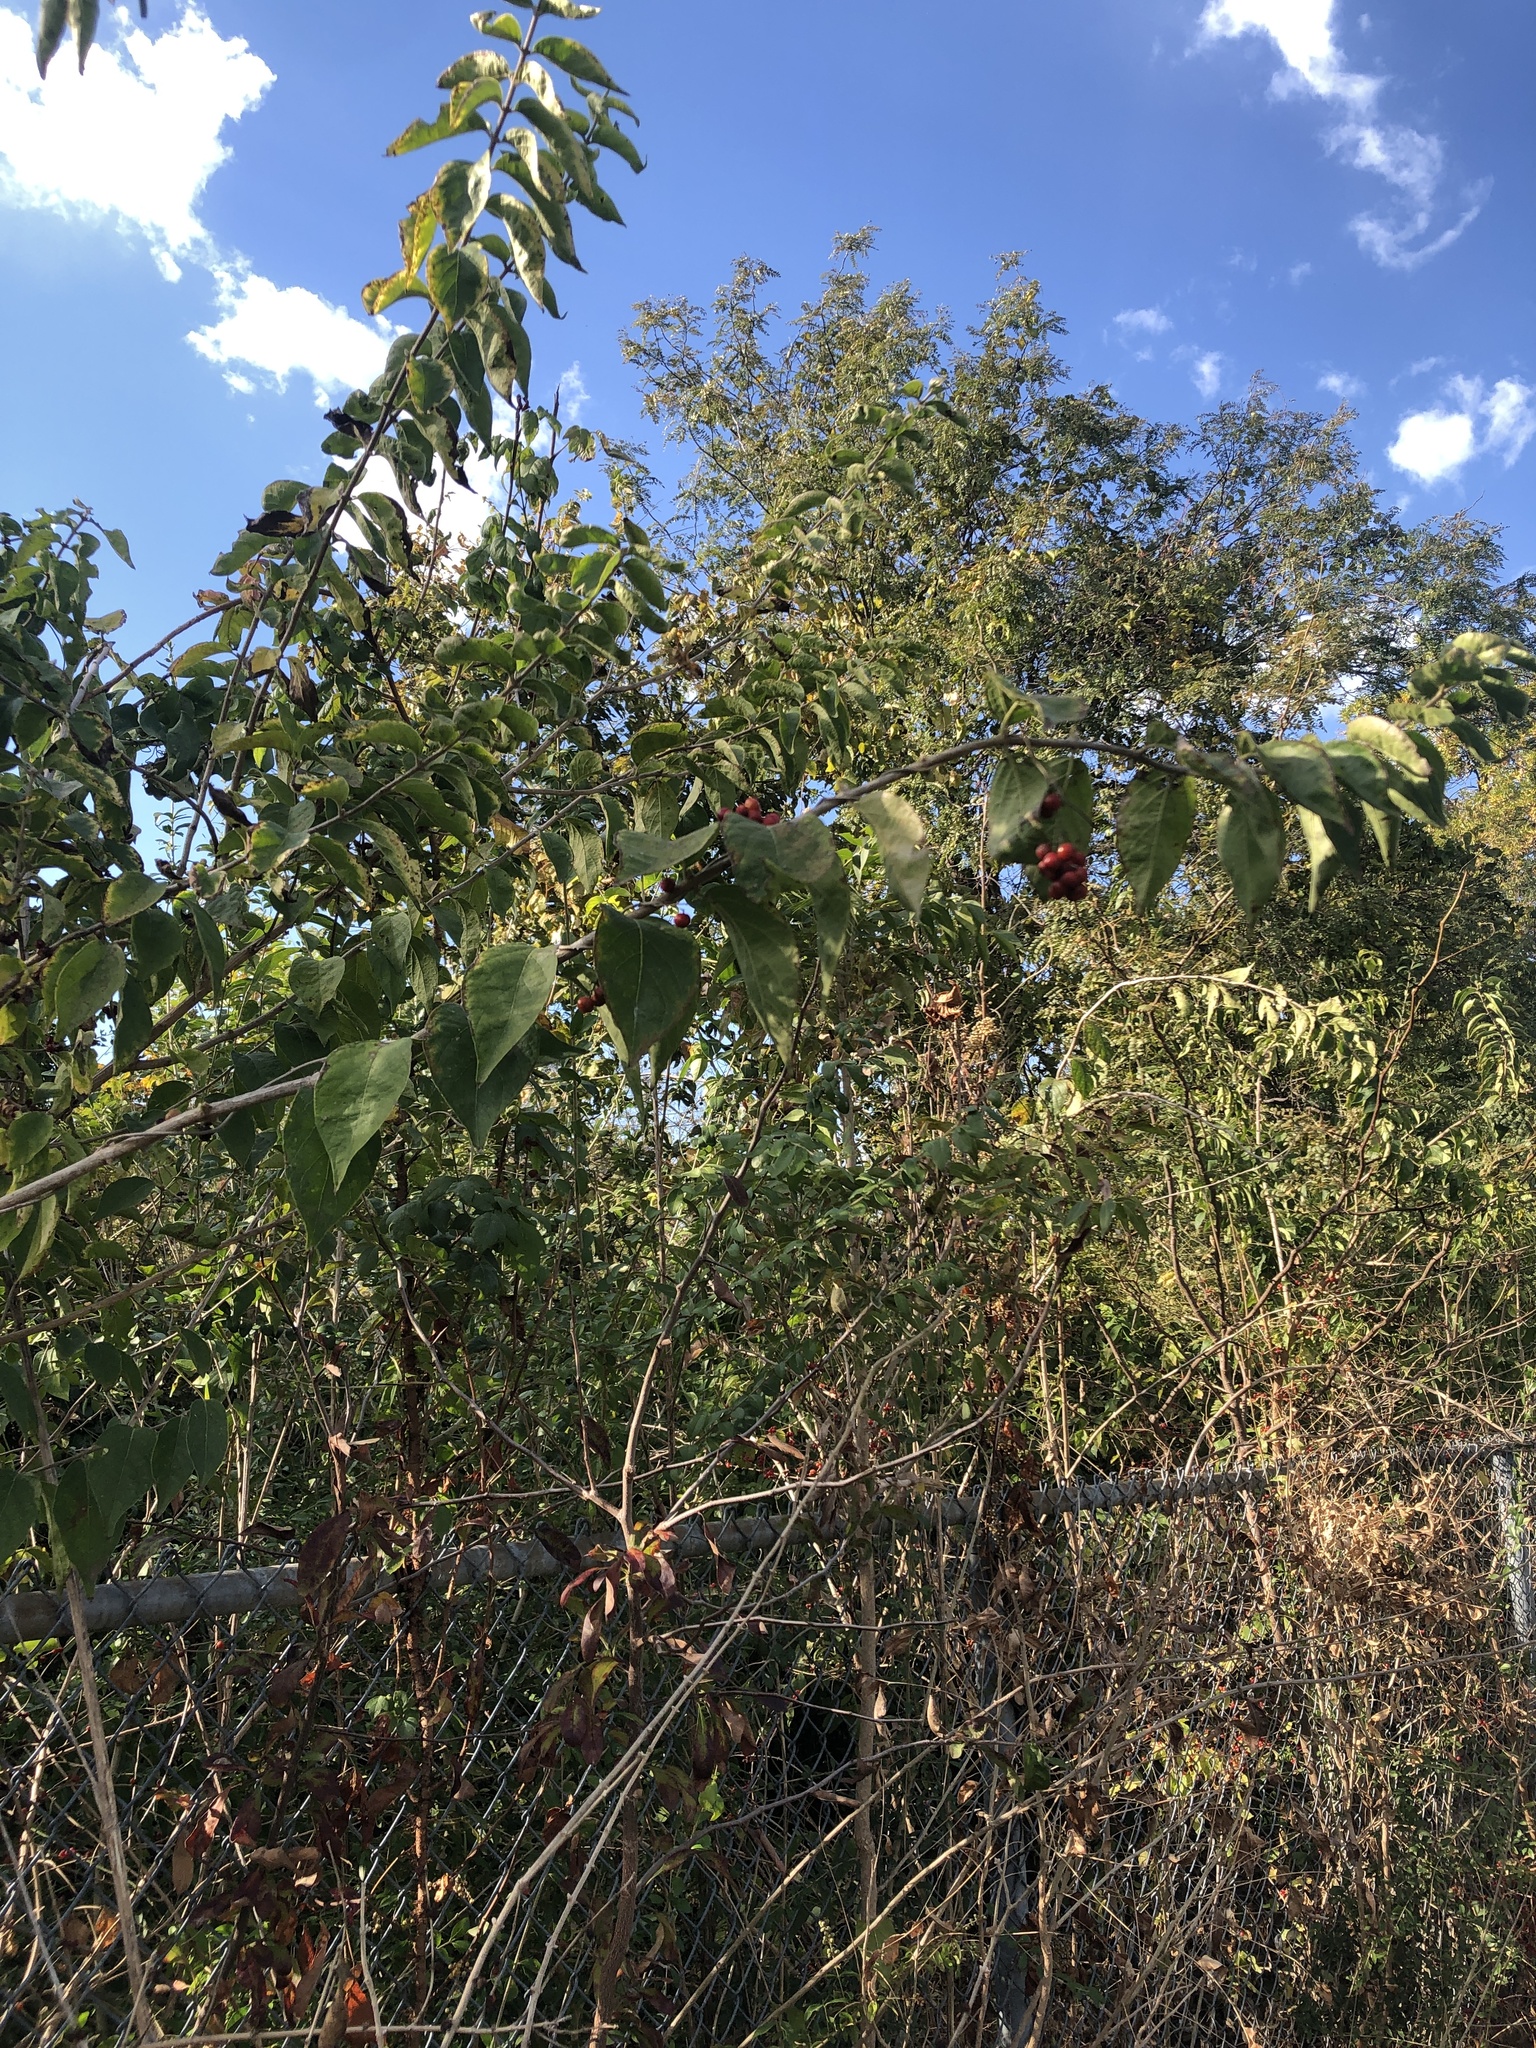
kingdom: Plantae
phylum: Tracheophyta
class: Magnoliopsida
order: Ranunculales
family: Menispermaceae
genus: Cocculus
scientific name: Cocculus carolinus
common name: Carolina moonseed
